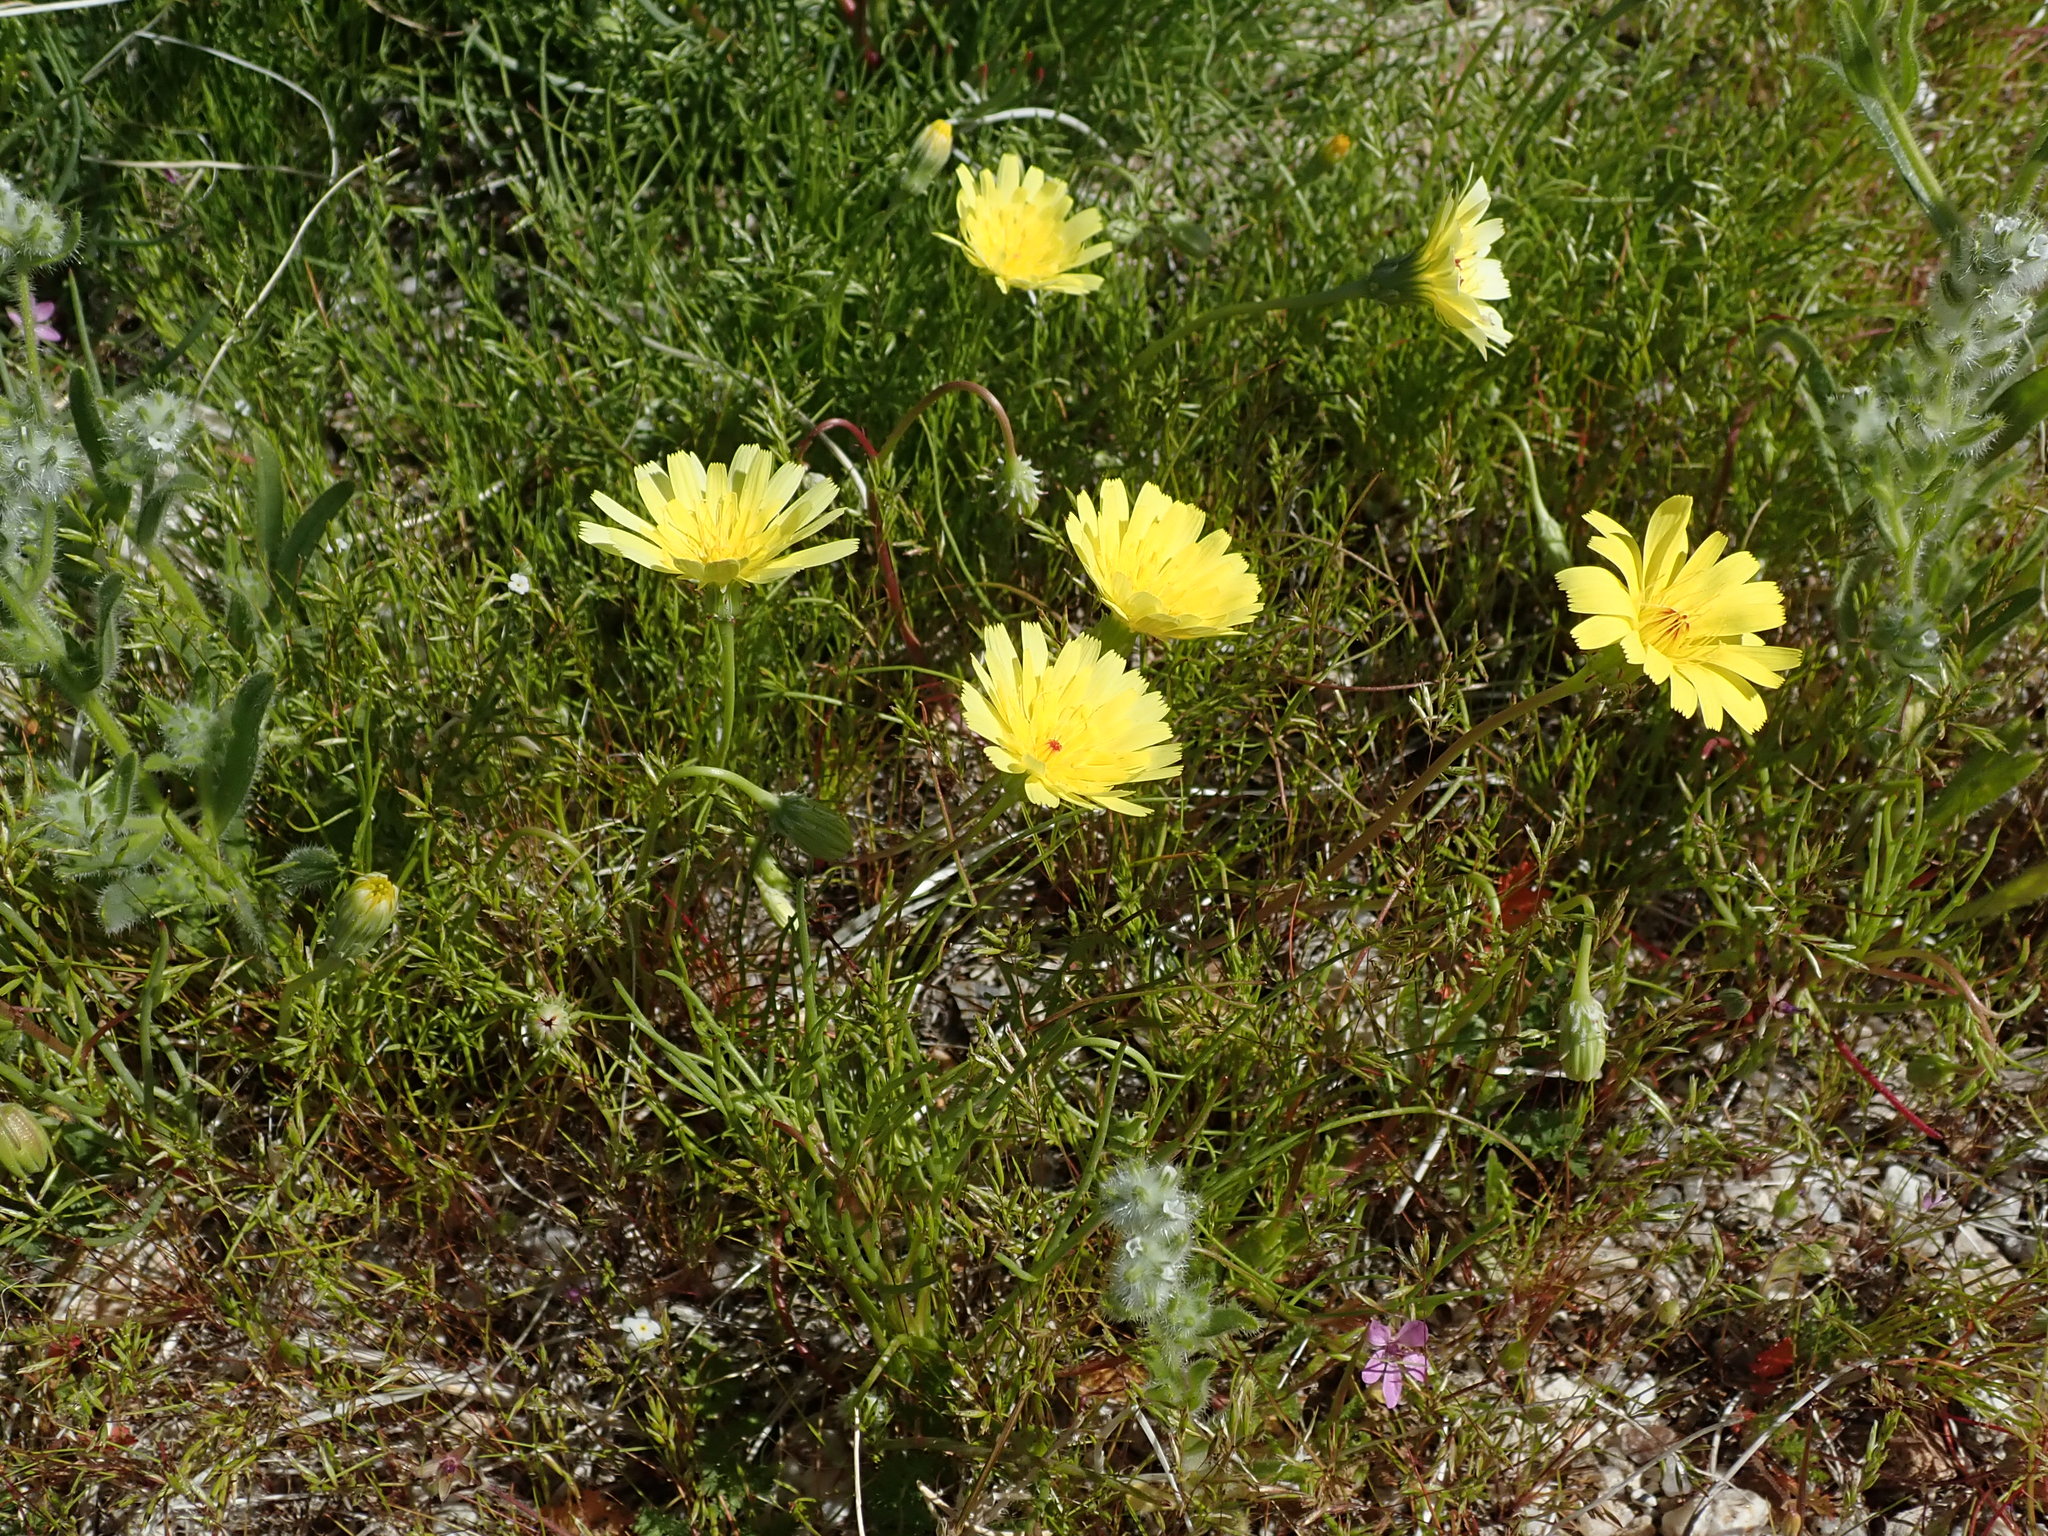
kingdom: Plantae
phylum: Tracheophyta
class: Magnoliopsida
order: Asterales
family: Asteraceae
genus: Malacothrix
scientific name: Malacothrix glabrata
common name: Smooth desert-dandelion
